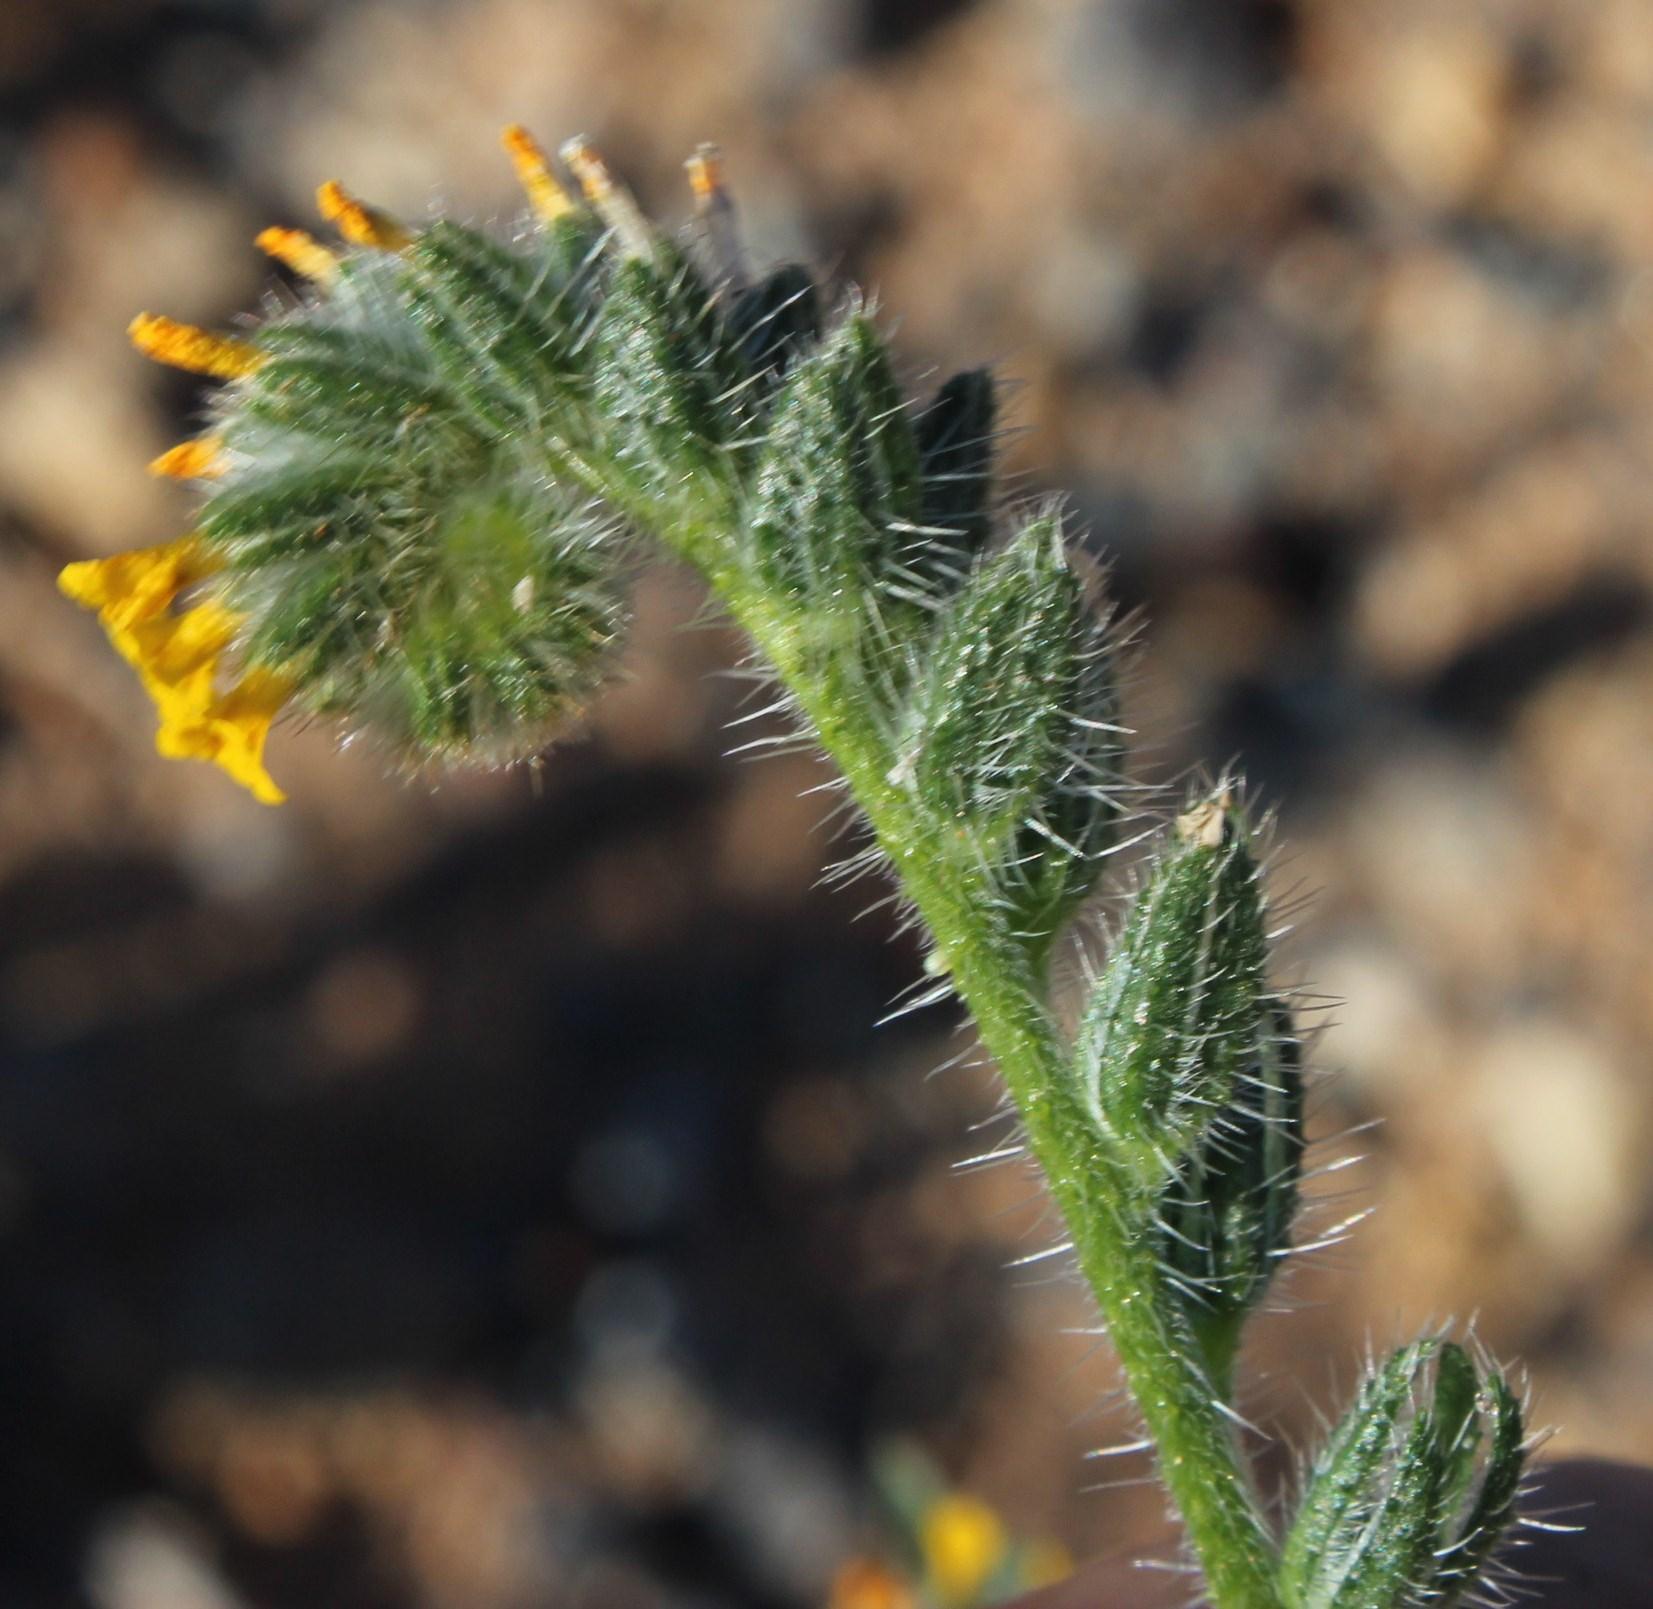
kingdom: Plantae
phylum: Tracheophyta
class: Magnoliopsida
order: Boraginales
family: Boraginaceae
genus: Amsinckia
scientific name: Amsinckia menziesii
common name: Menzies' fiddleneck
